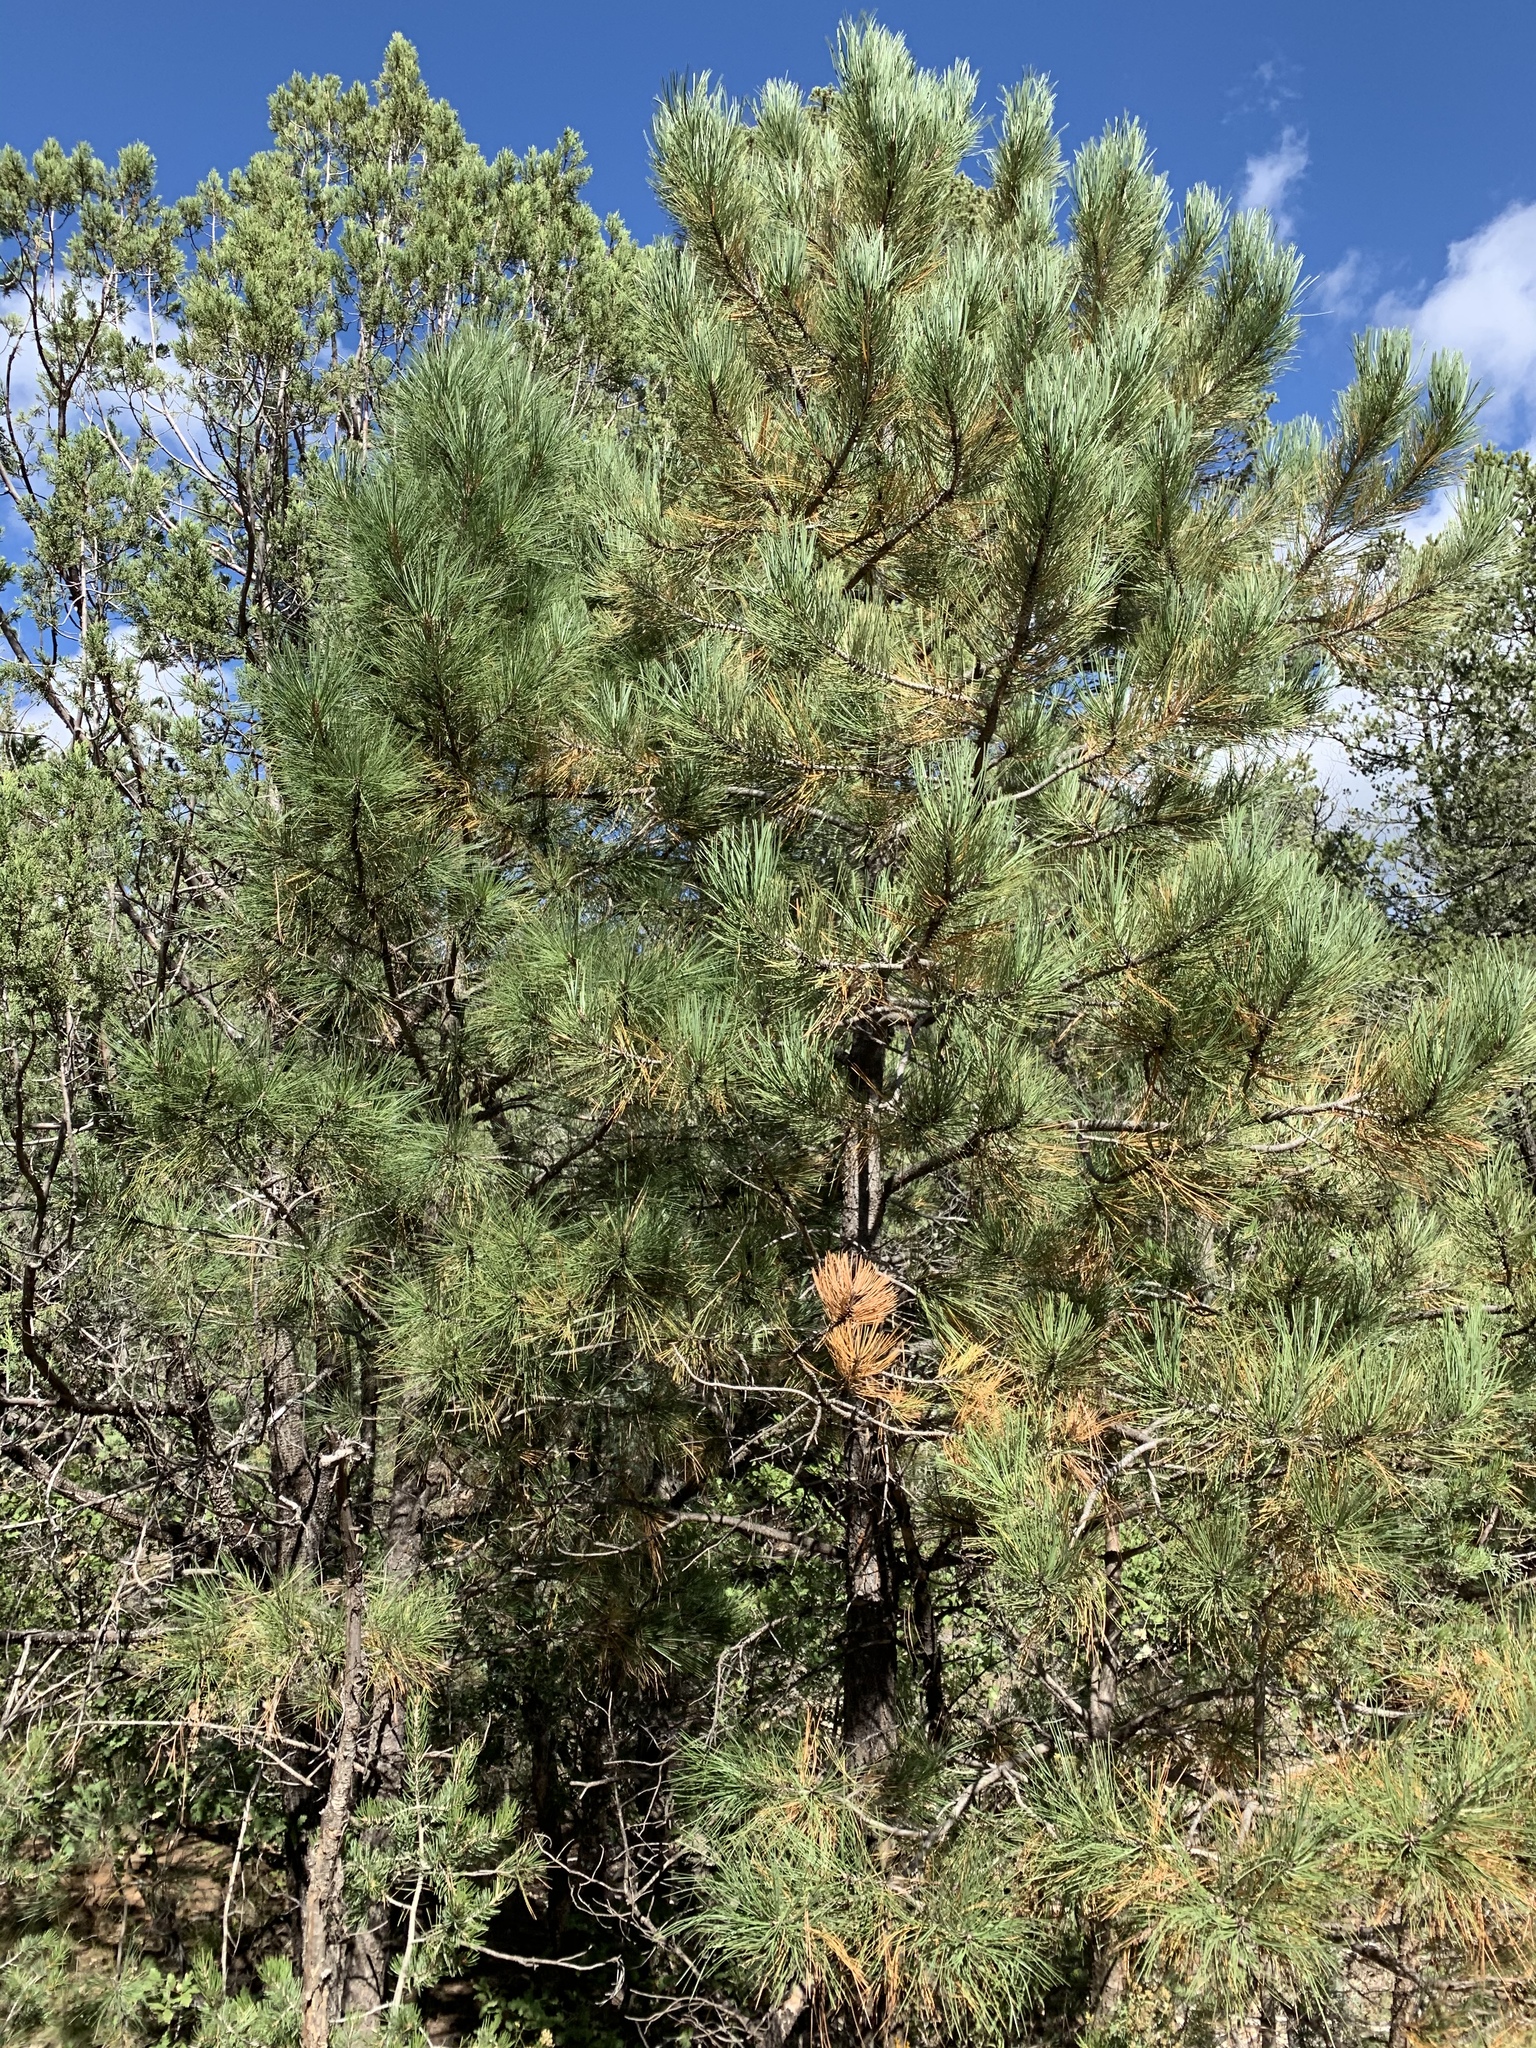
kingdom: Plantae
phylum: Tracheophyta
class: Pinopsida
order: Pinales
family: Pinaceae
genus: Pinus
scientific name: Pinus ponderosa
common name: Western yellow-pine
